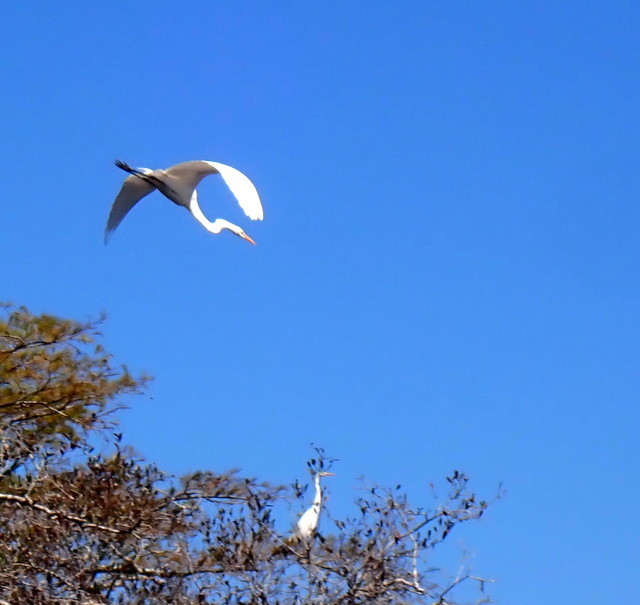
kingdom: Animalia
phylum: Chordata
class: Aves
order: Pelecaniformes
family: Ardeidae
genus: Ardea
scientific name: Ardea alba
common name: Great egret
